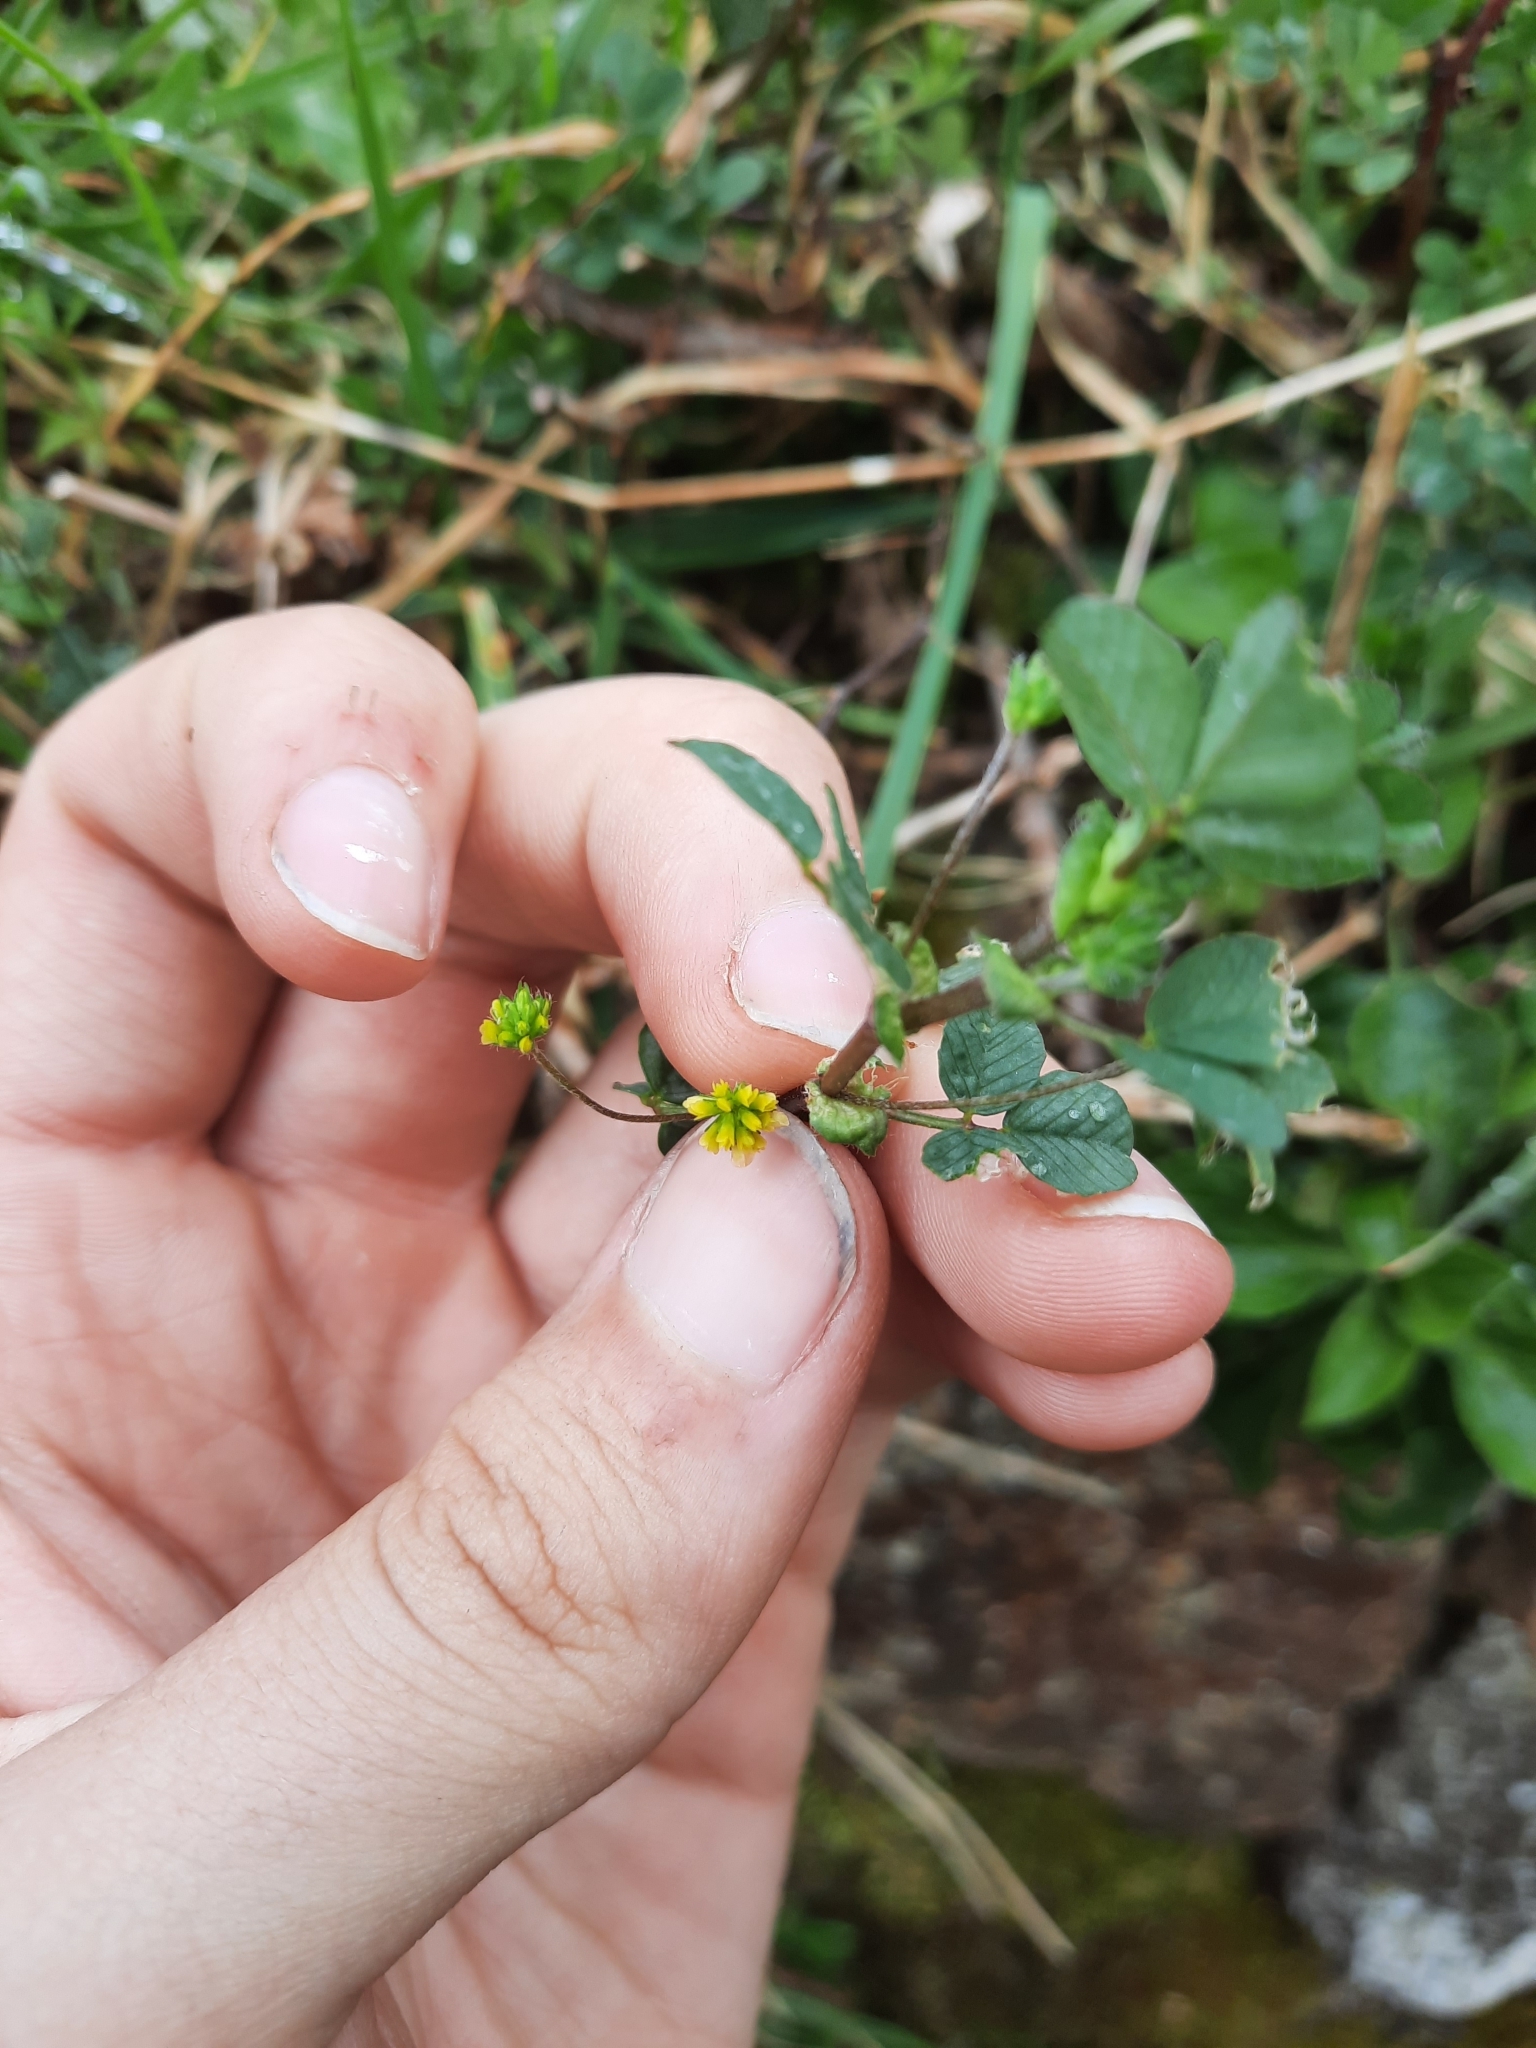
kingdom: Plantae
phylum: Tracheophyta
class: Magnoliopsida
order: Fabales
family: Fabaceae
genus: Trifolium
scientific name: Trifolium dubium
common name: Suckling clover
